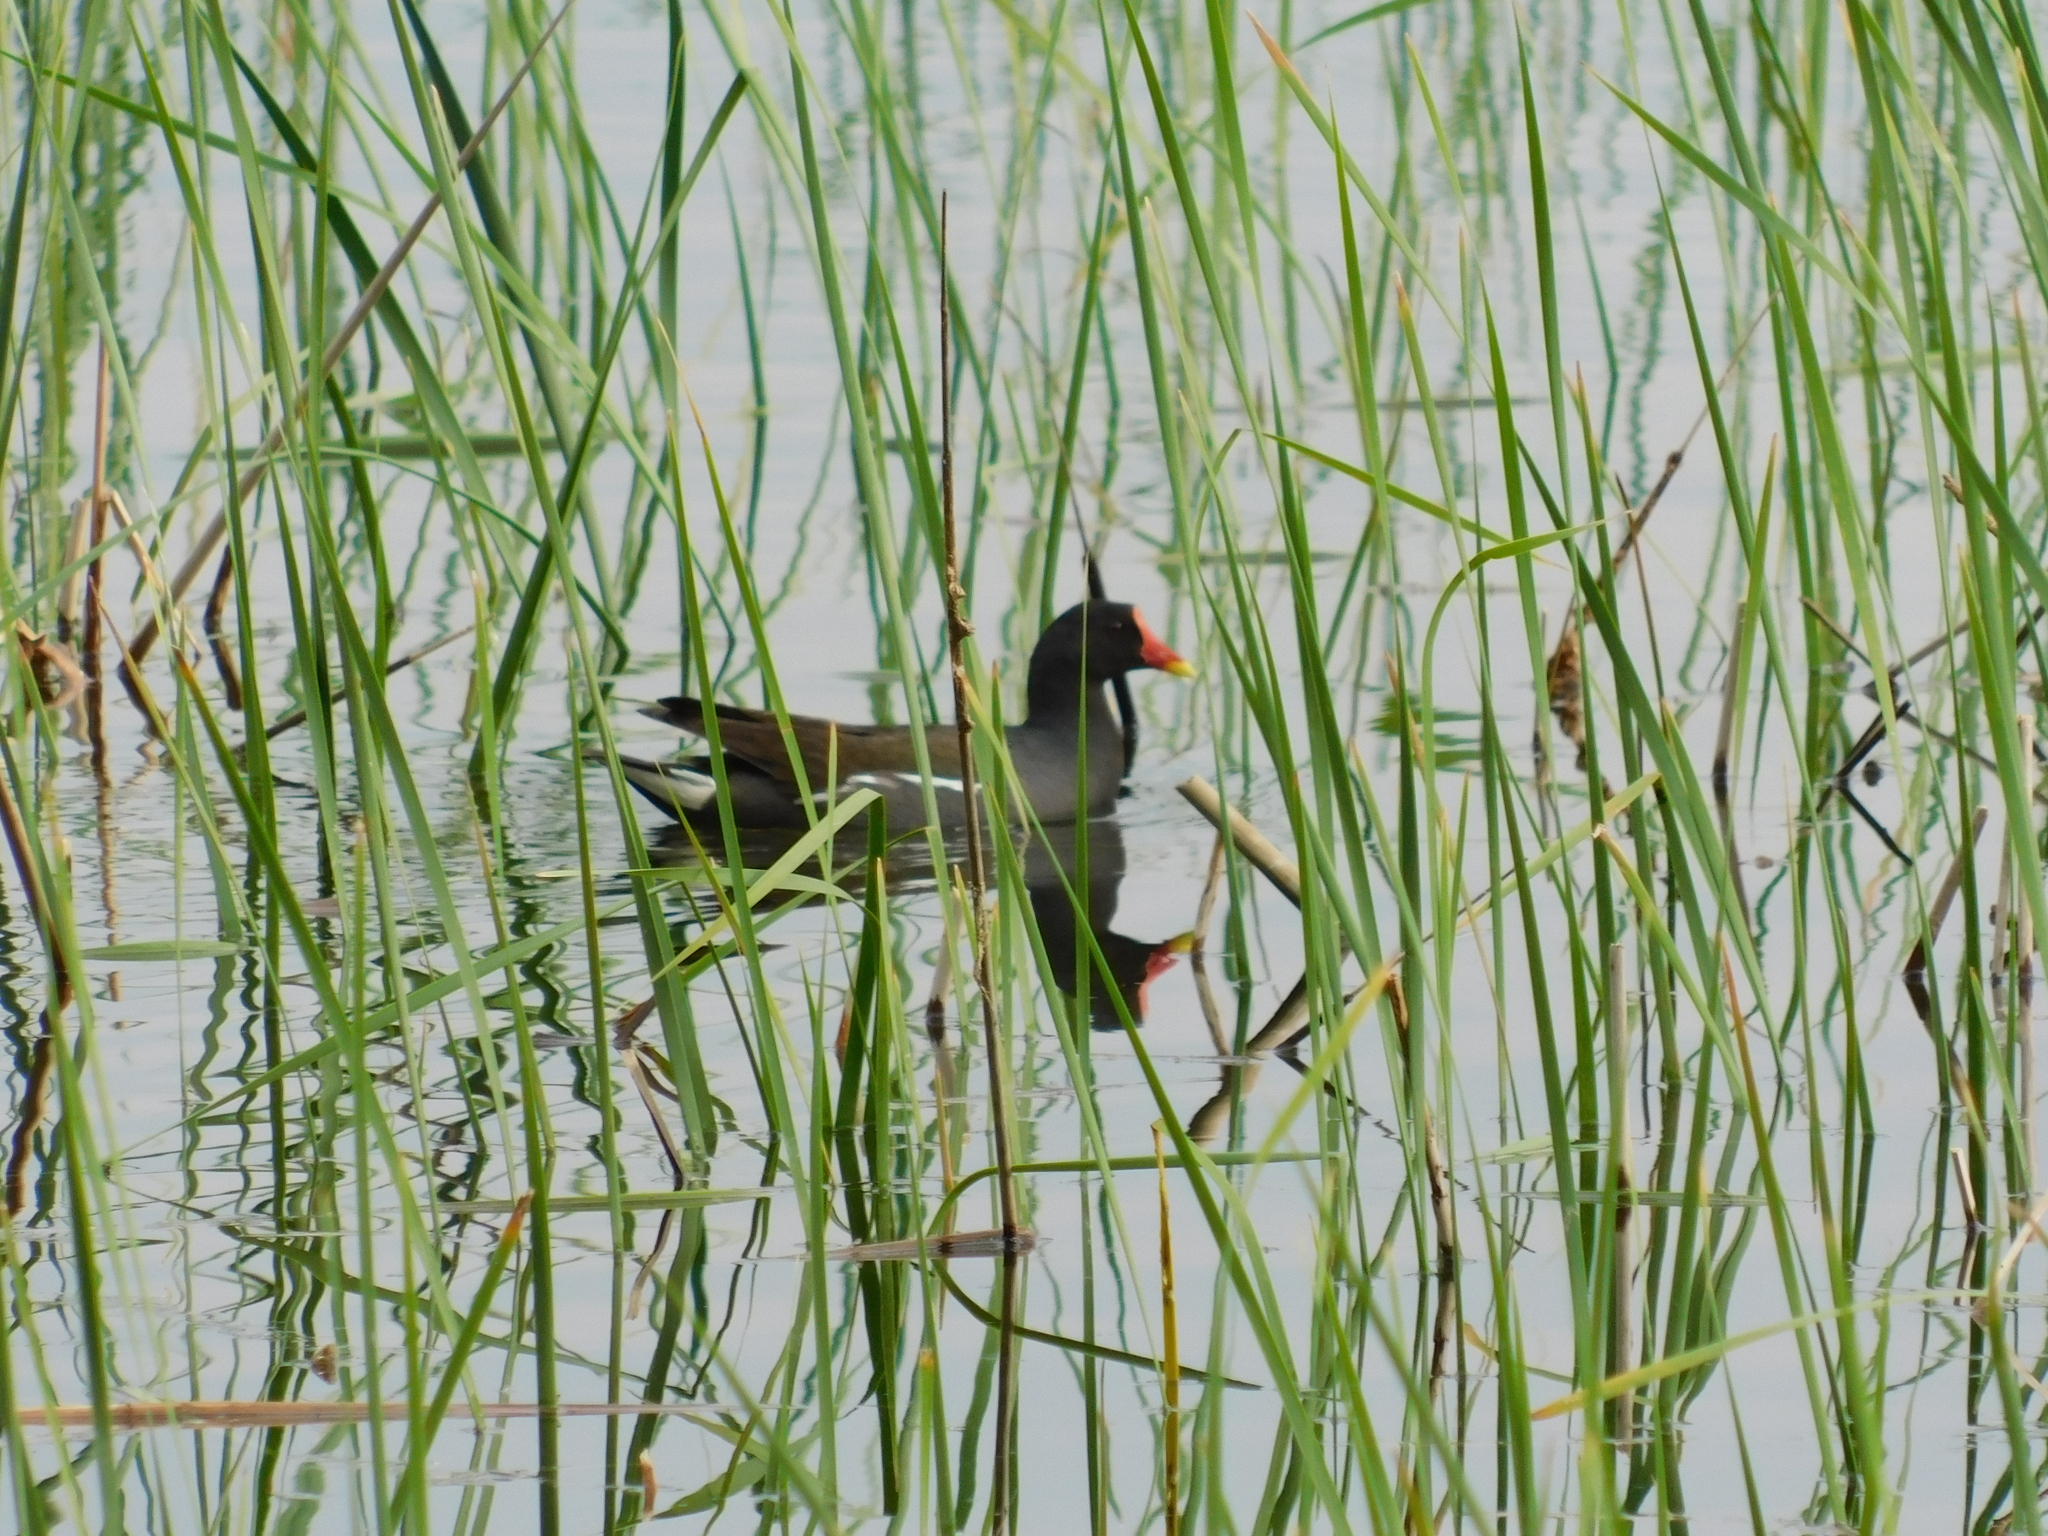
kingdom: Animalia
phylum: Chordata
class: Aves
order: Gruiformes
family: Rallidae
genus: Gallinula
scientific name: Gallinula chloropus
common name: Common moorhen
